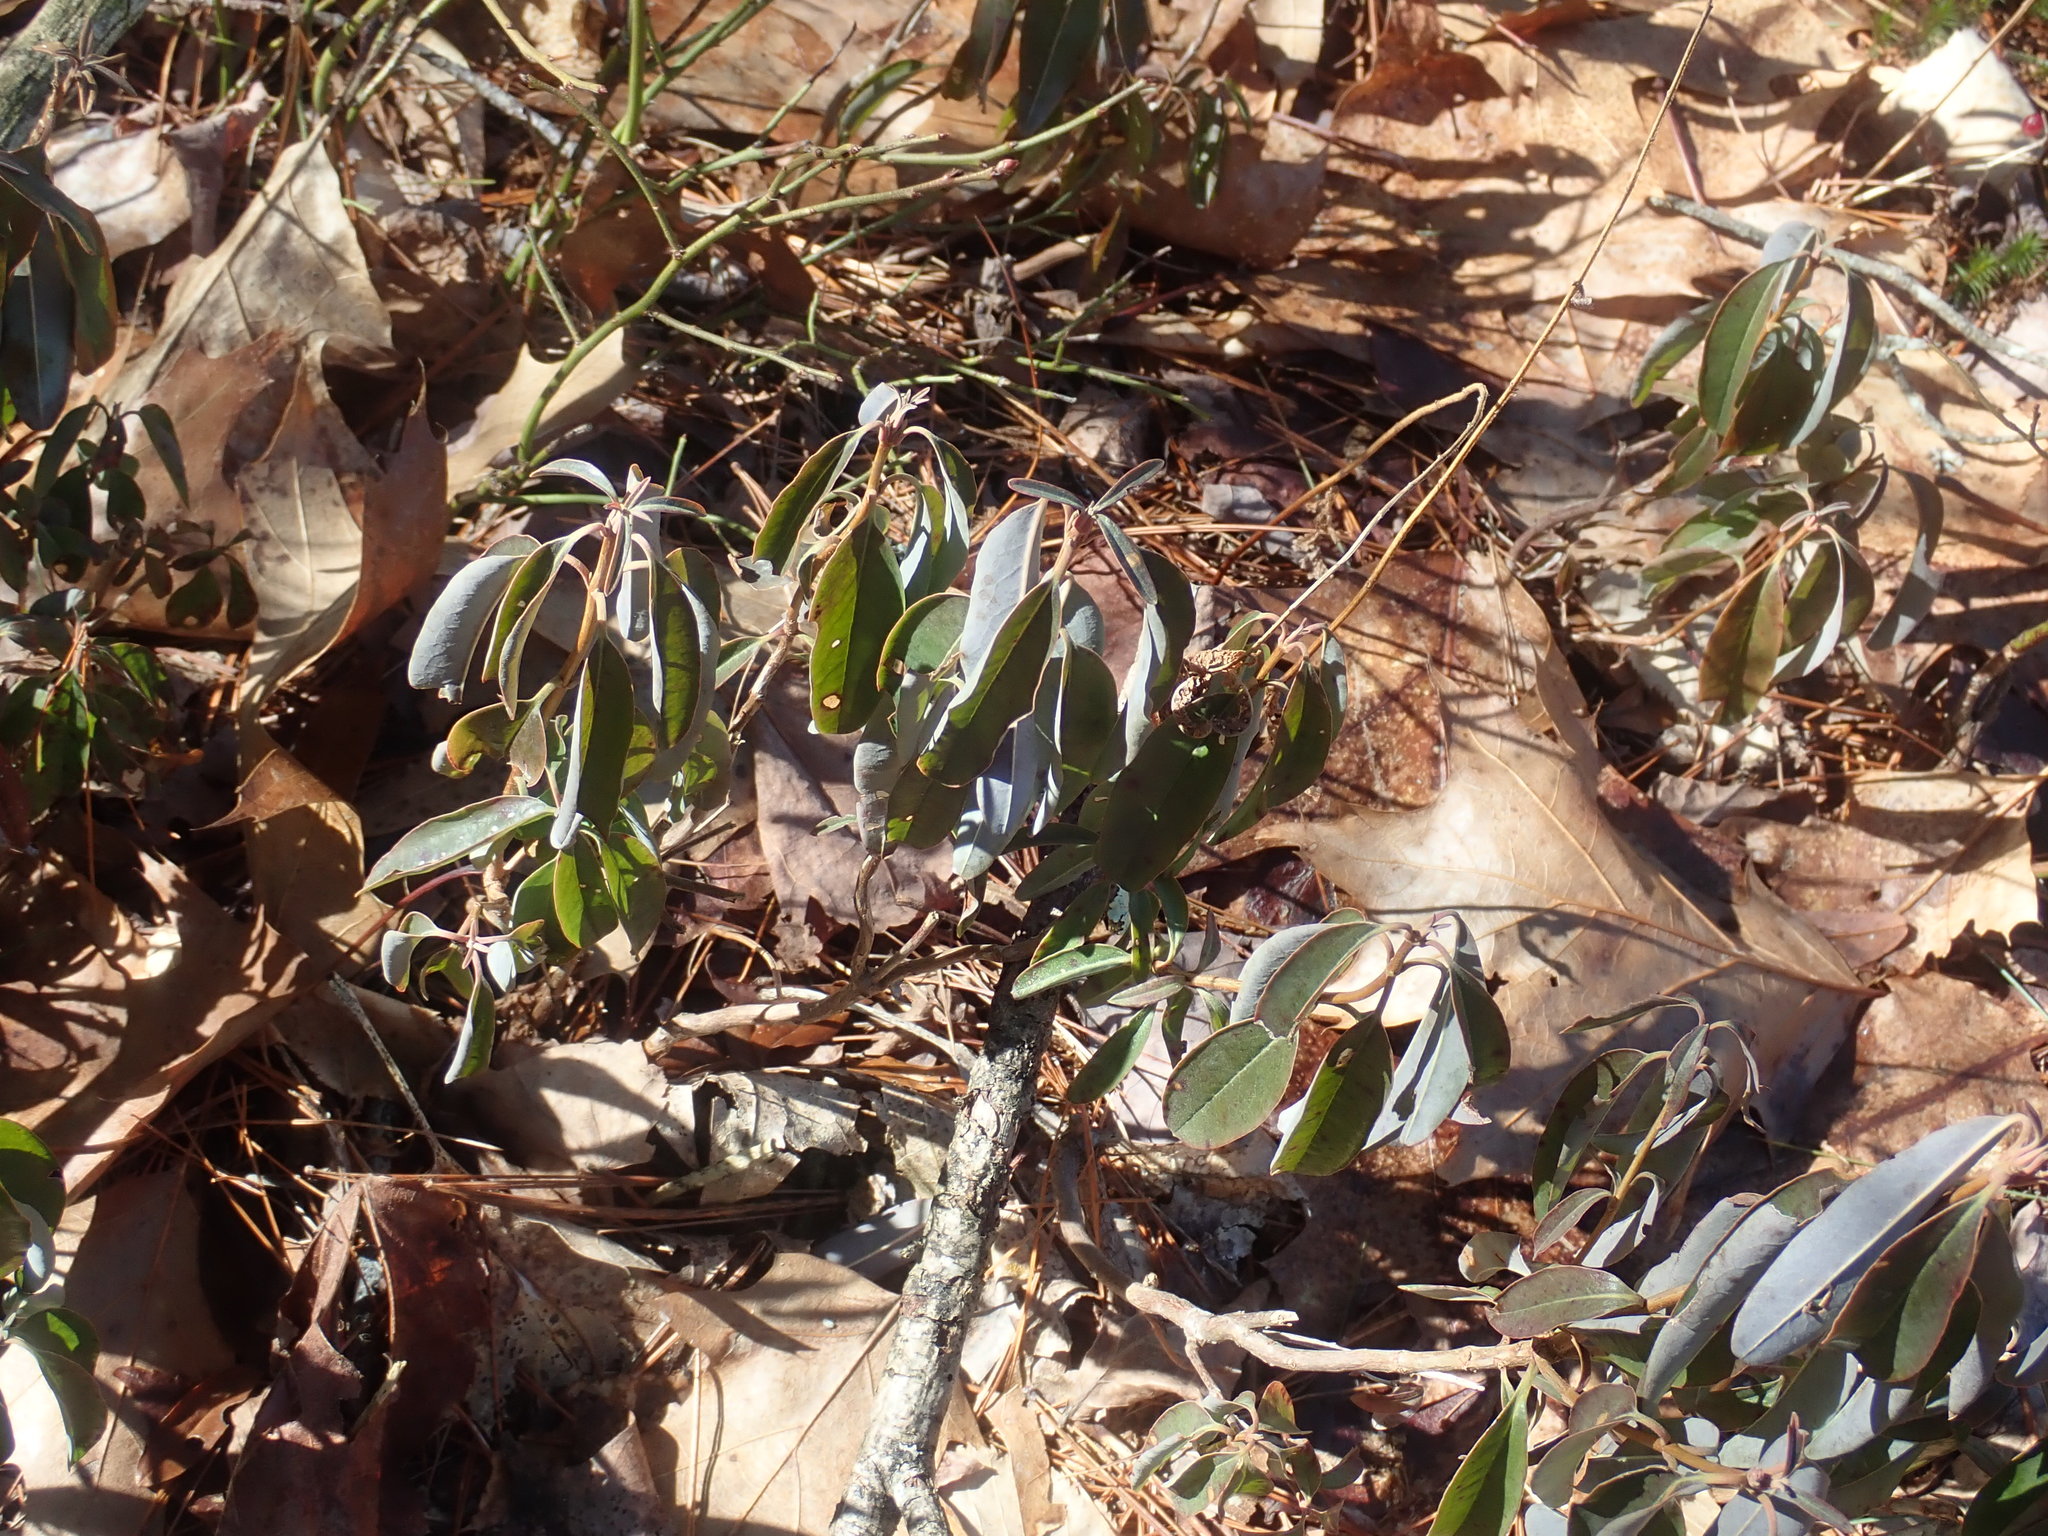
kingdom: Plantae
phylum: Tracheophyta
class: Magnoliopsida
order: Ericales
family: Ericaceae
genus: Kalmia
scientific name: Kalmia angustifolia
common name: Sheep-laurel
